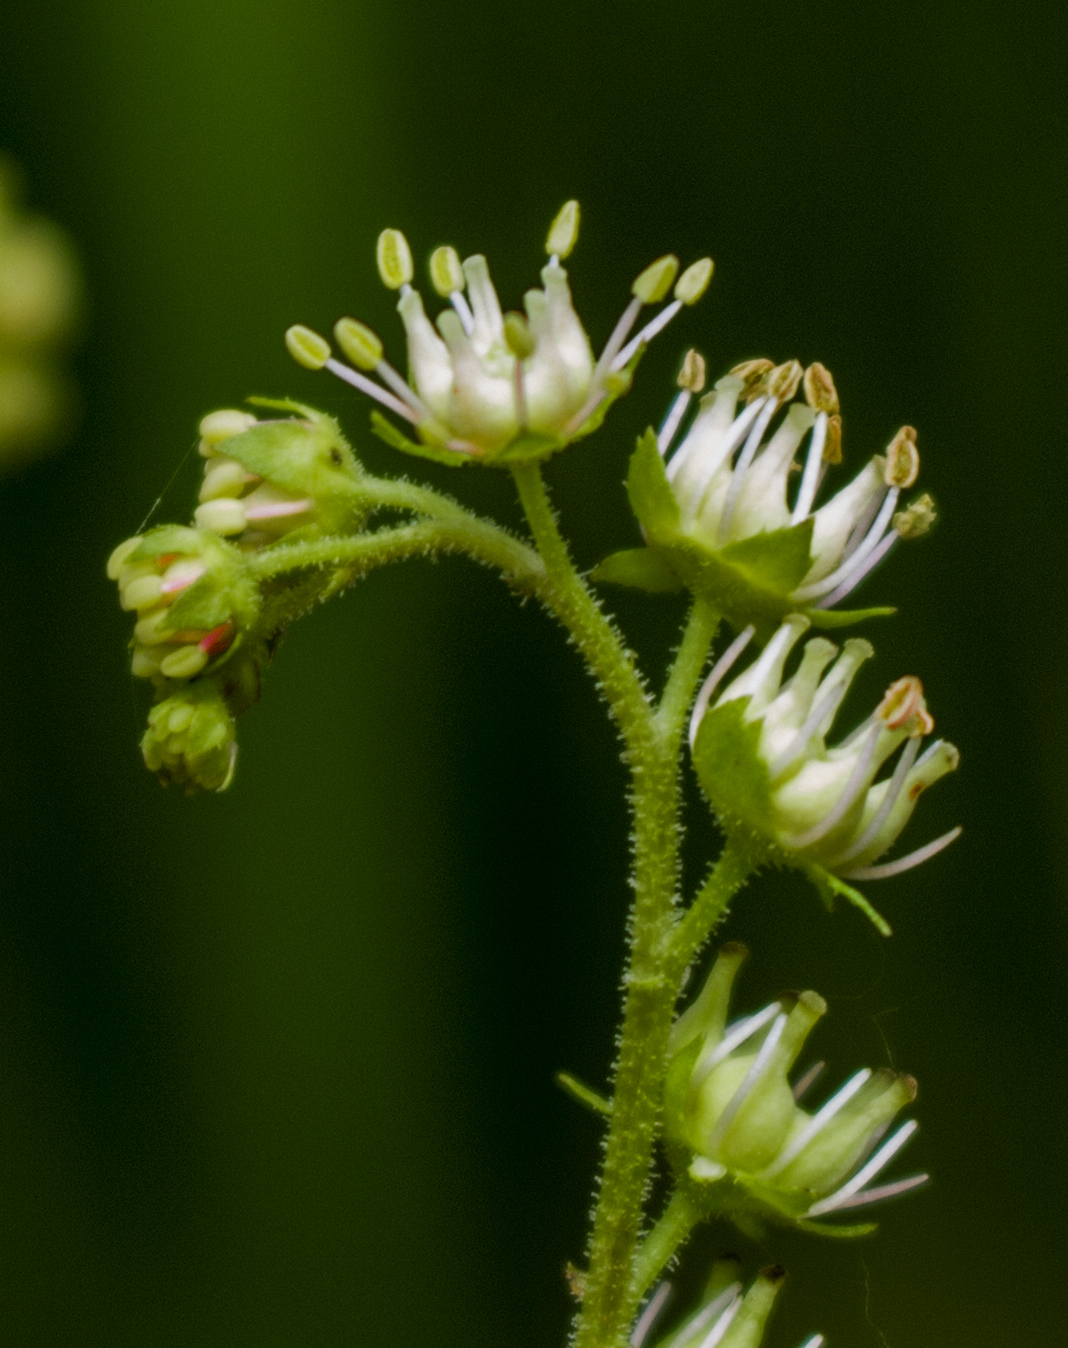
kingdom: Plantae
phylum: Tracheophyta
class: Magnoliopsida
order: Saxifragales
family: Penthoraceae
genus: Penthorum
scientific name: Penthorum sedoides
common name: Ditch stonecrop
